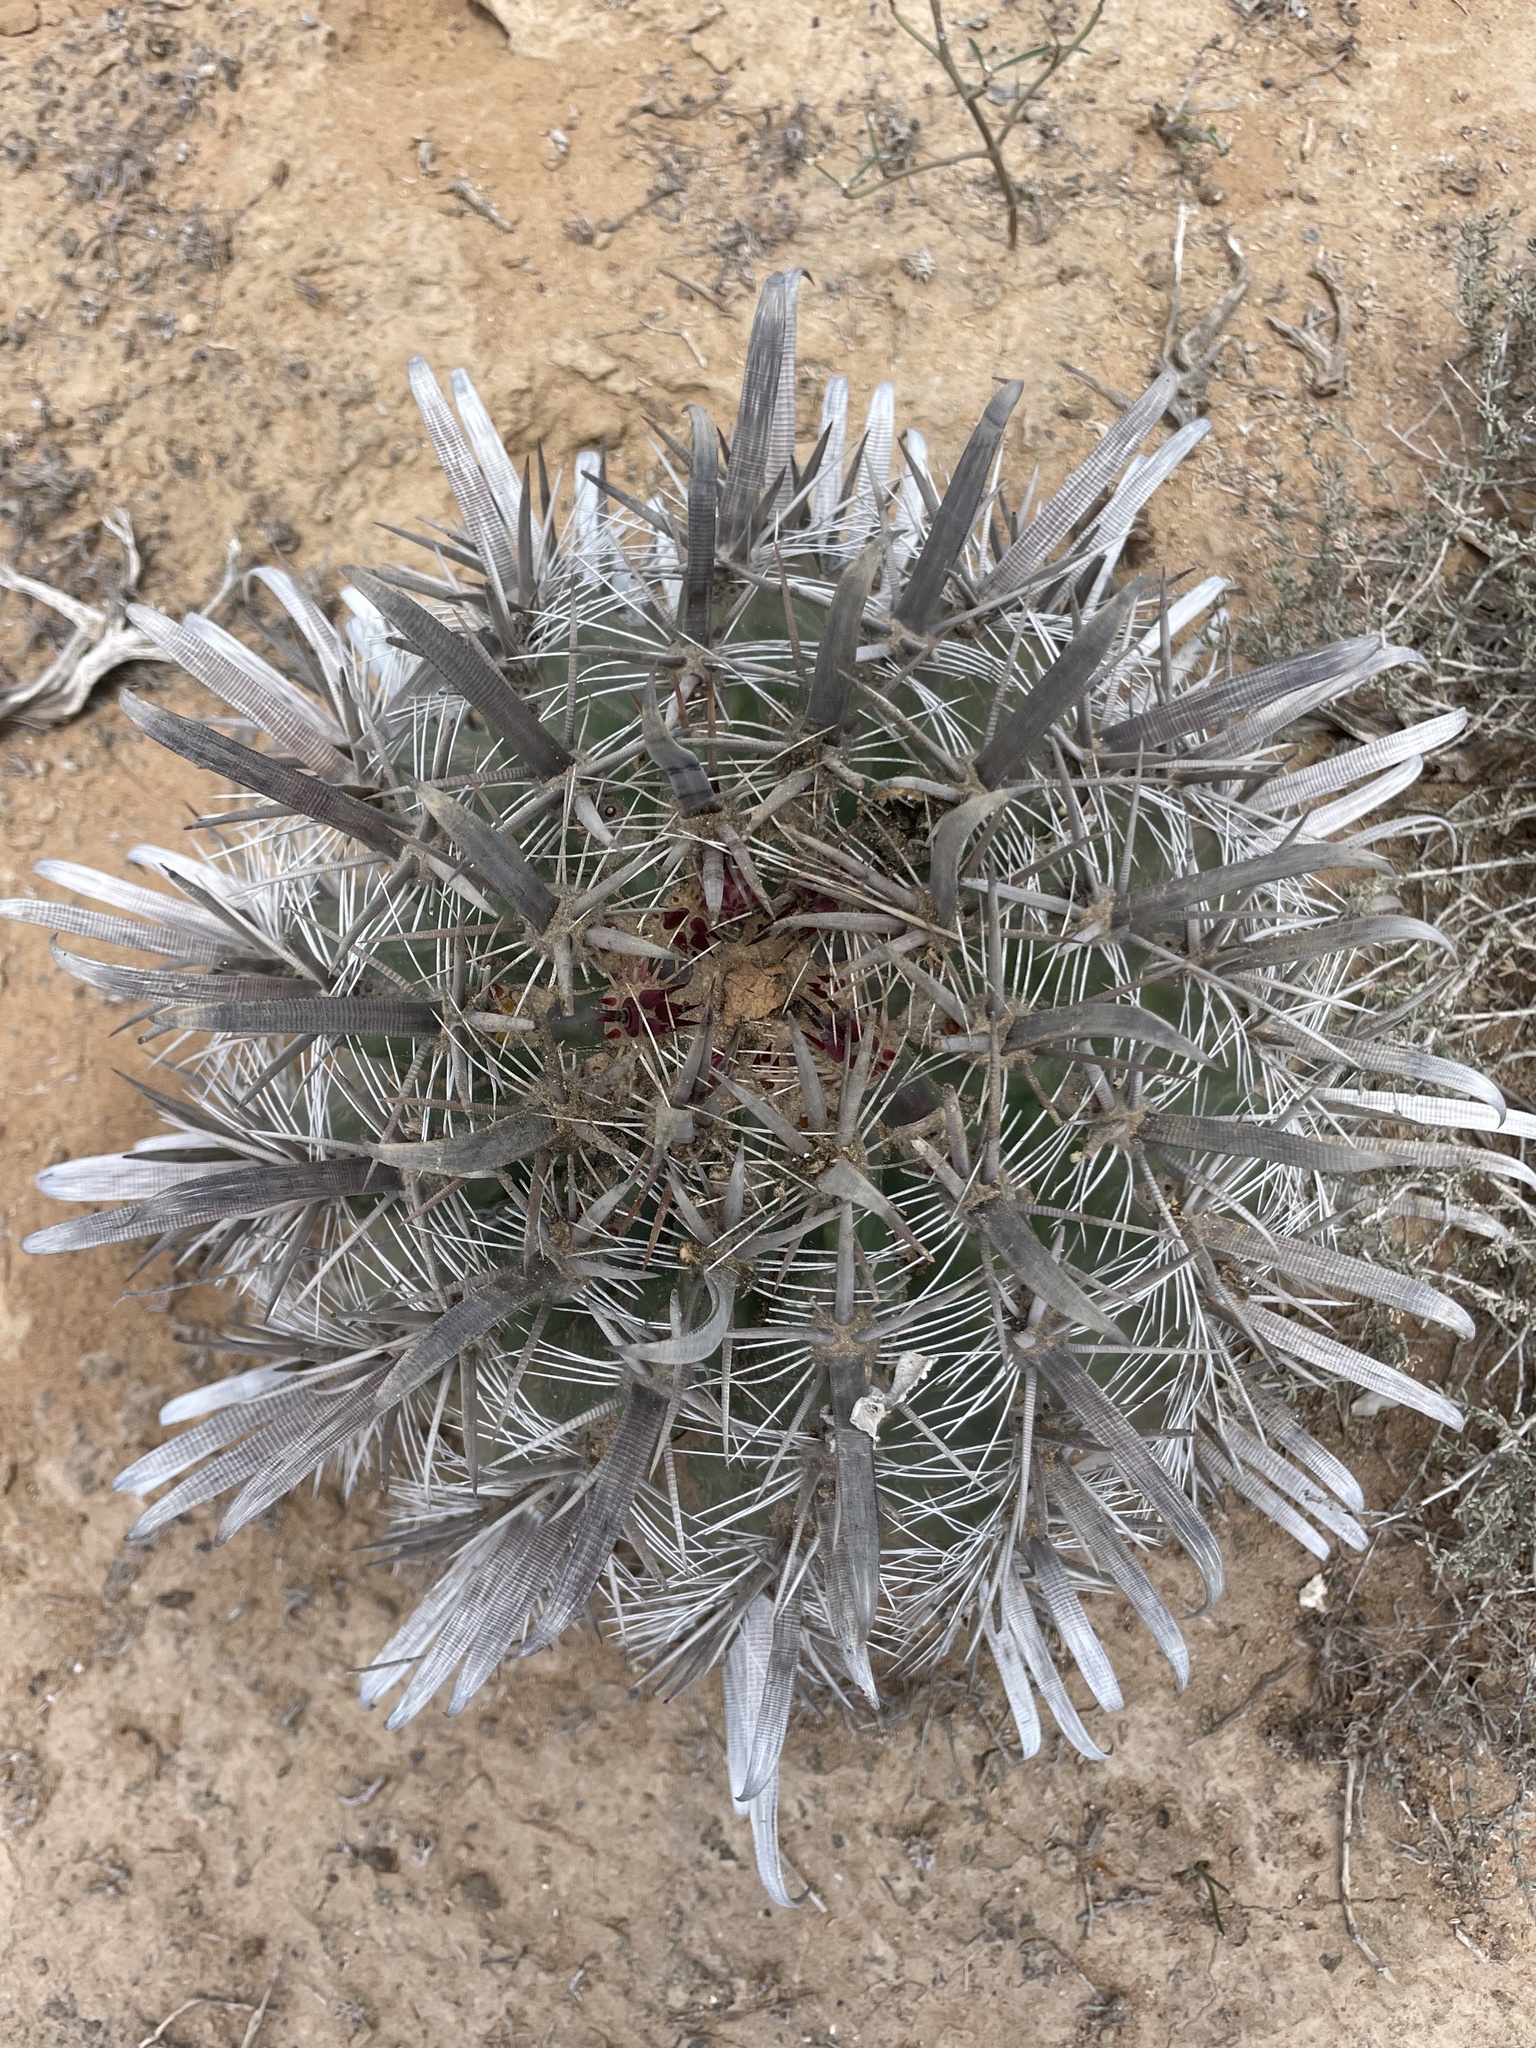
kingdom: Plantae
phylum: Tracheophyta
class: Magnoliopsida
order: Caryophyllales
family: Cactaceae
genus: Ferocactus
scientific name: Ferocactus santa-maria
